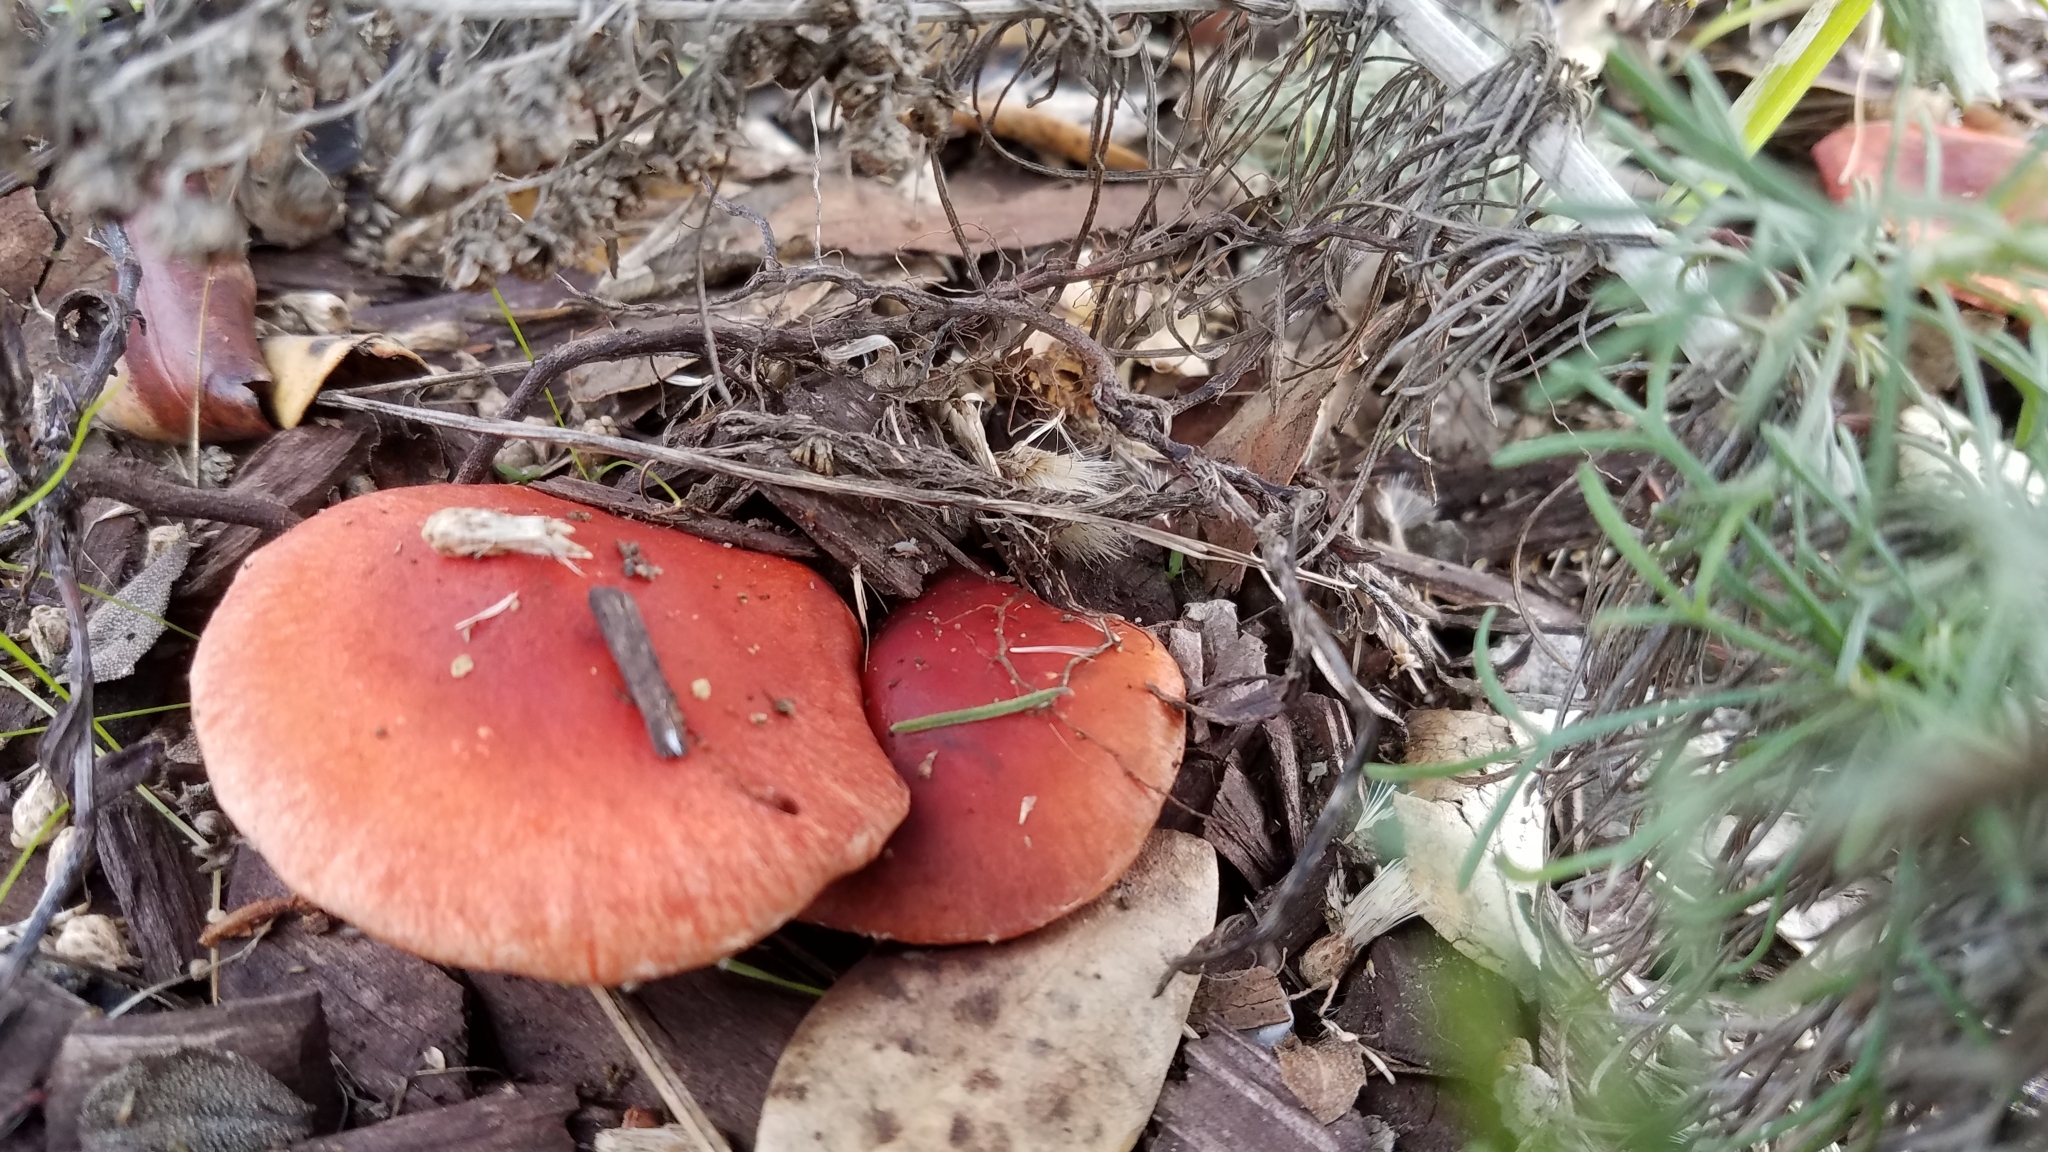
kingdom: Fungi
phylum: Basidiomycota
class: Agaricomycetes
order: Agaricales
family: Strophariaceae
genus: Leratiomyces
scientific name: Leratiomyces ceres
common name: Redlead roundhead
